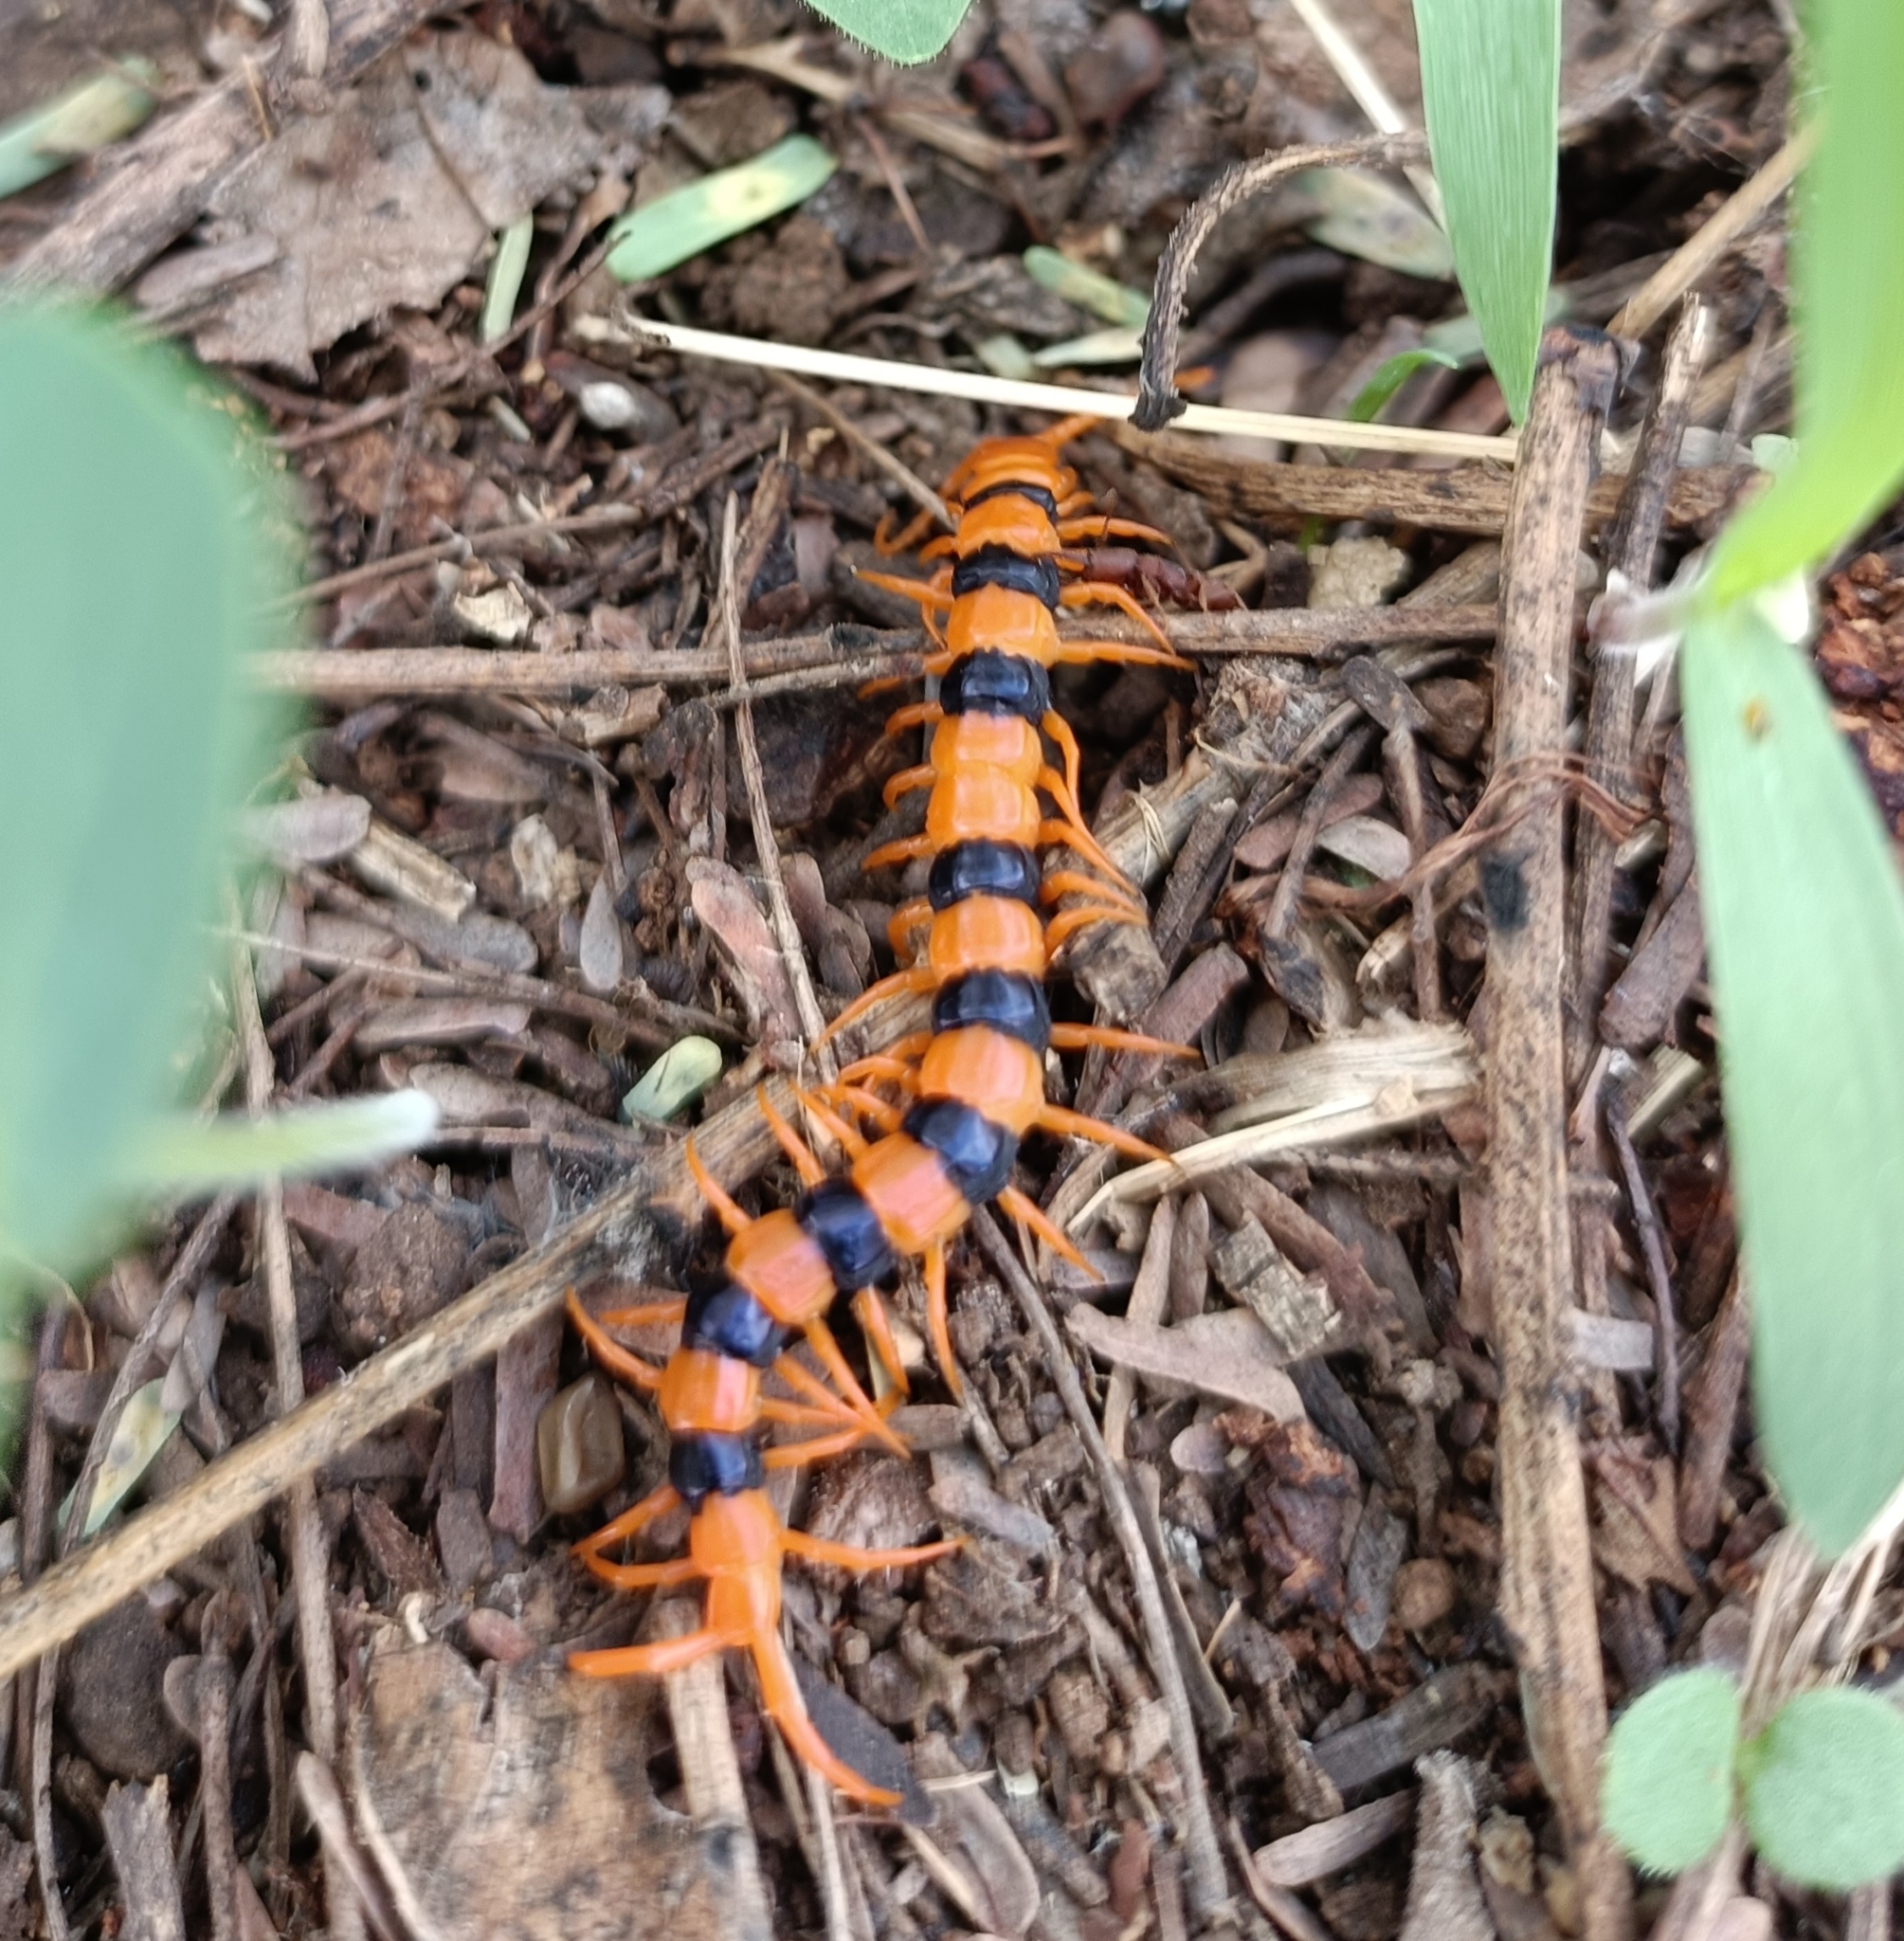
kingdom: Animalia
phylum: Arthropoda
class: Chilopoda
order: Scolopendromorpha
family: Scolopendridae
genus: Scolopendra
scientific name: Scolopendra hardwickei
